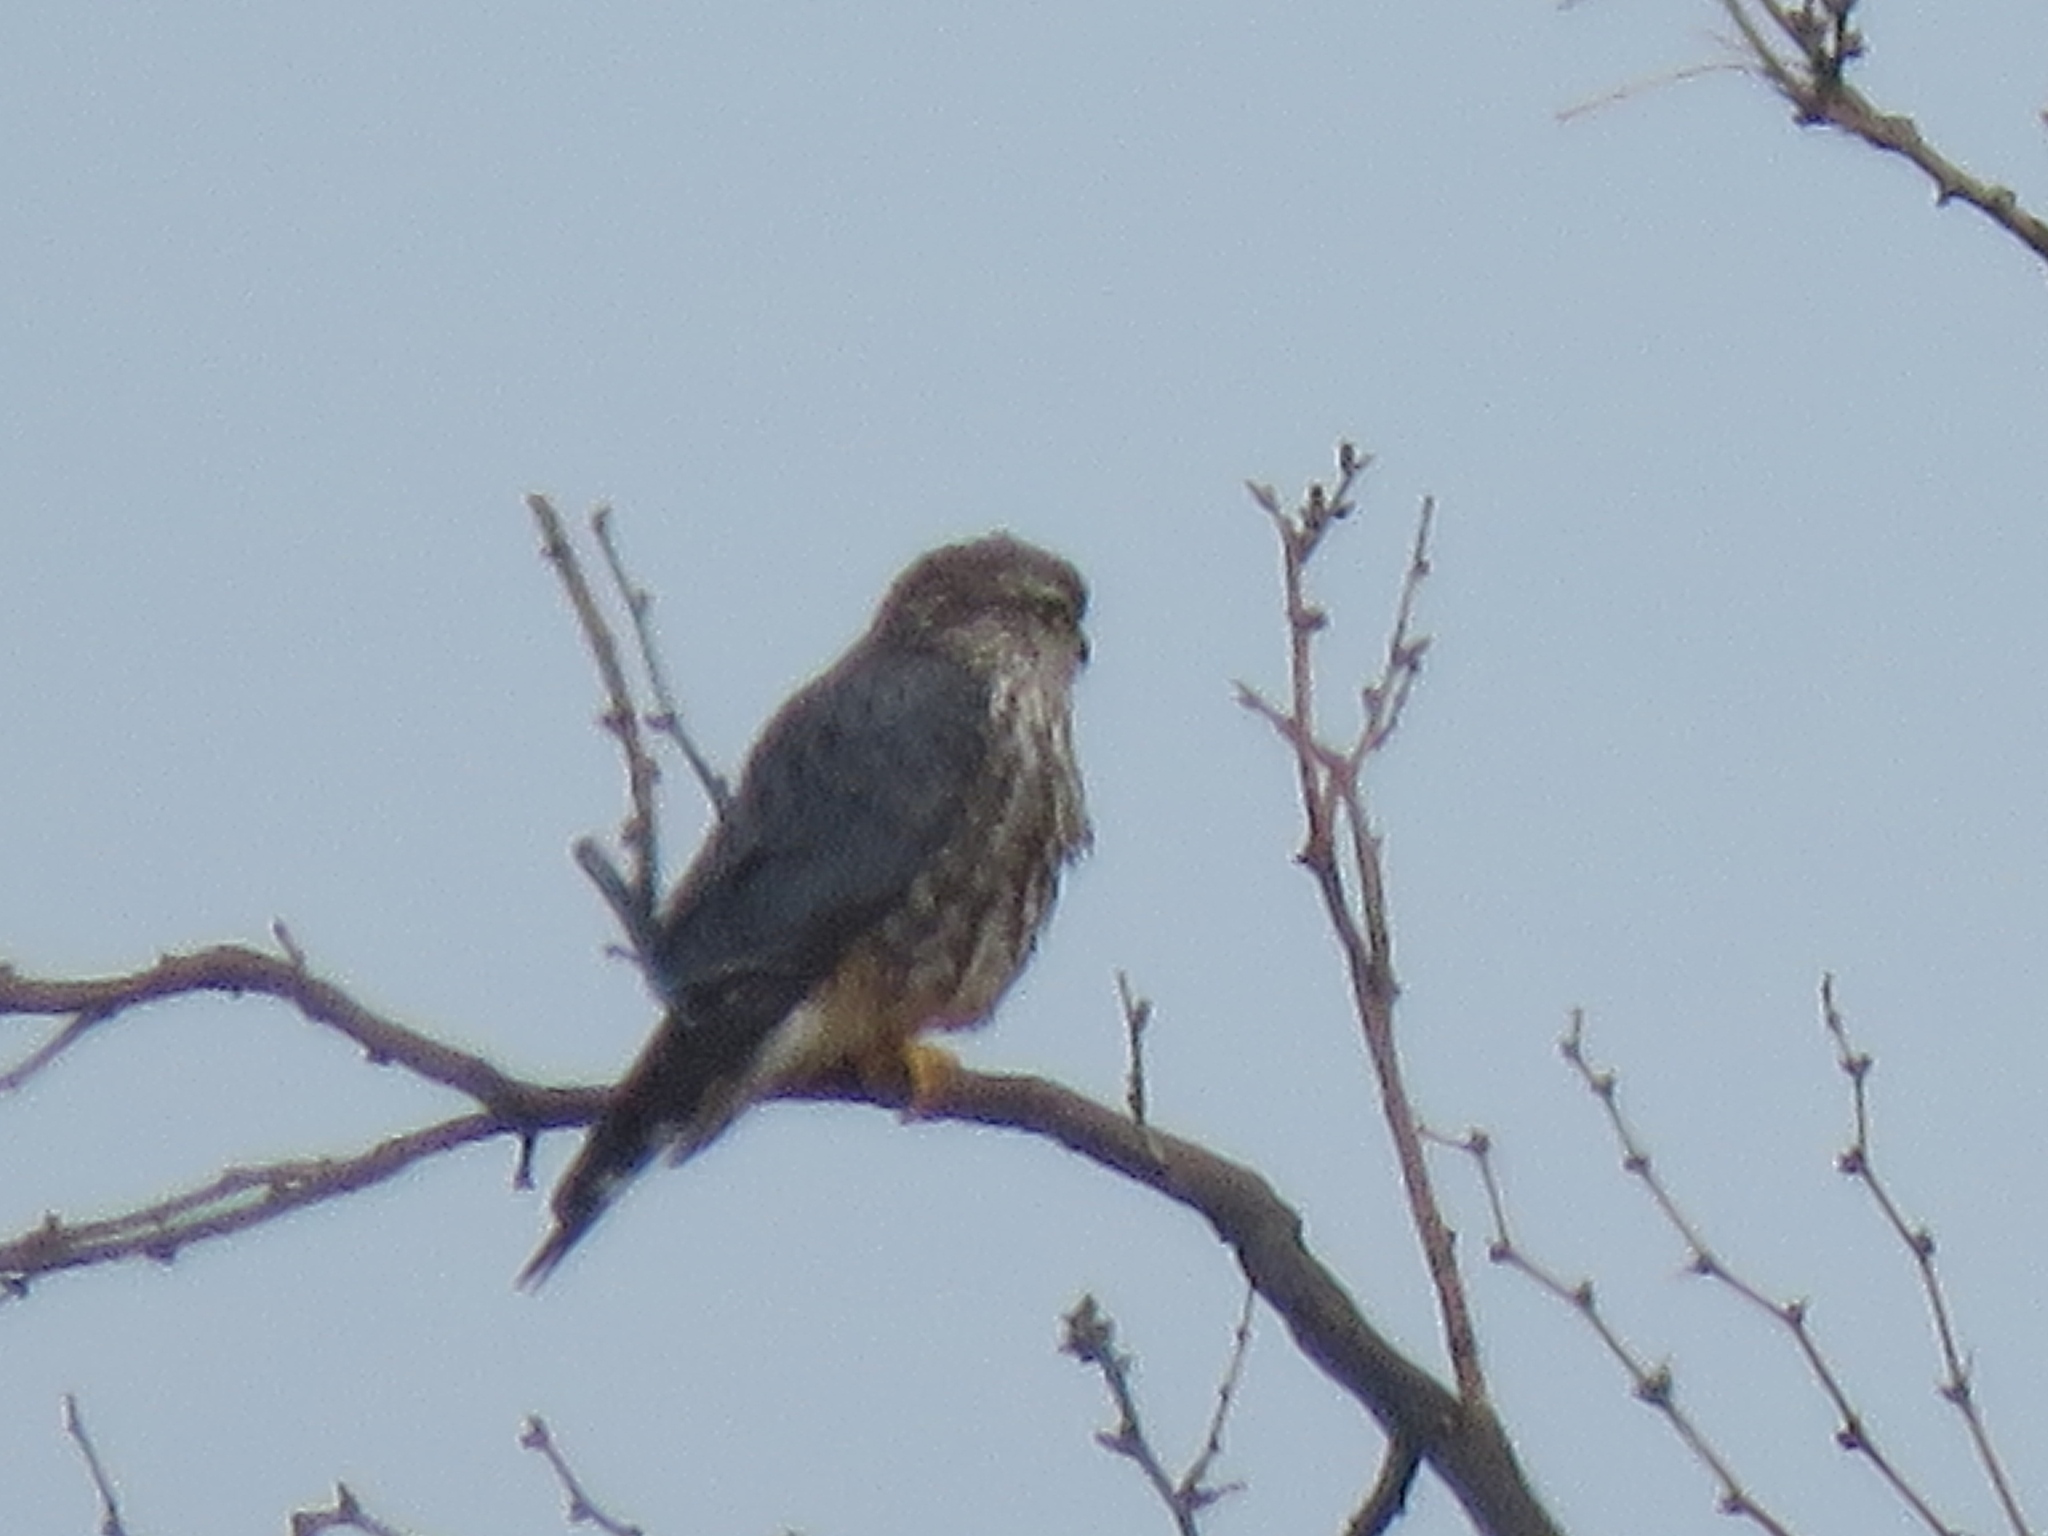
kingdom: Animalia
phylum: Chordata
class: Aves
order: Falconiformes
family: Falconidae
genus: Falco
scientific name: Falco columbarius
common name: Merlin
